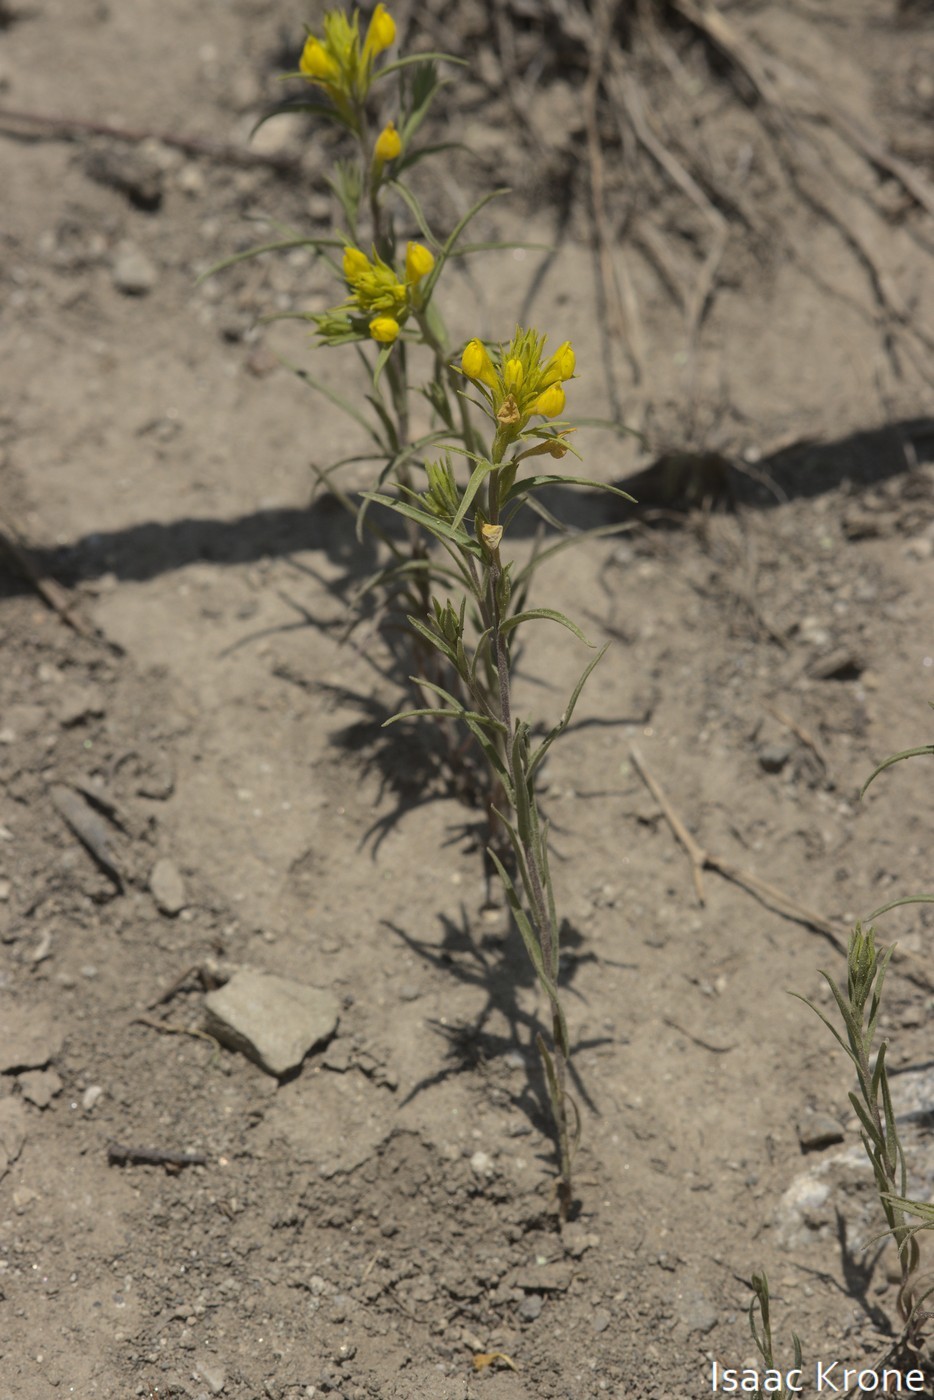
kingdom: Plantae
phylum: Tracheophyta
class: Magnoliopsida
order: Lamiales
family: Orobanchaceae
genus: Orthocarpus
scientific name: Orthocarpus tolmiei
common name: Tolmie's owl-clover
